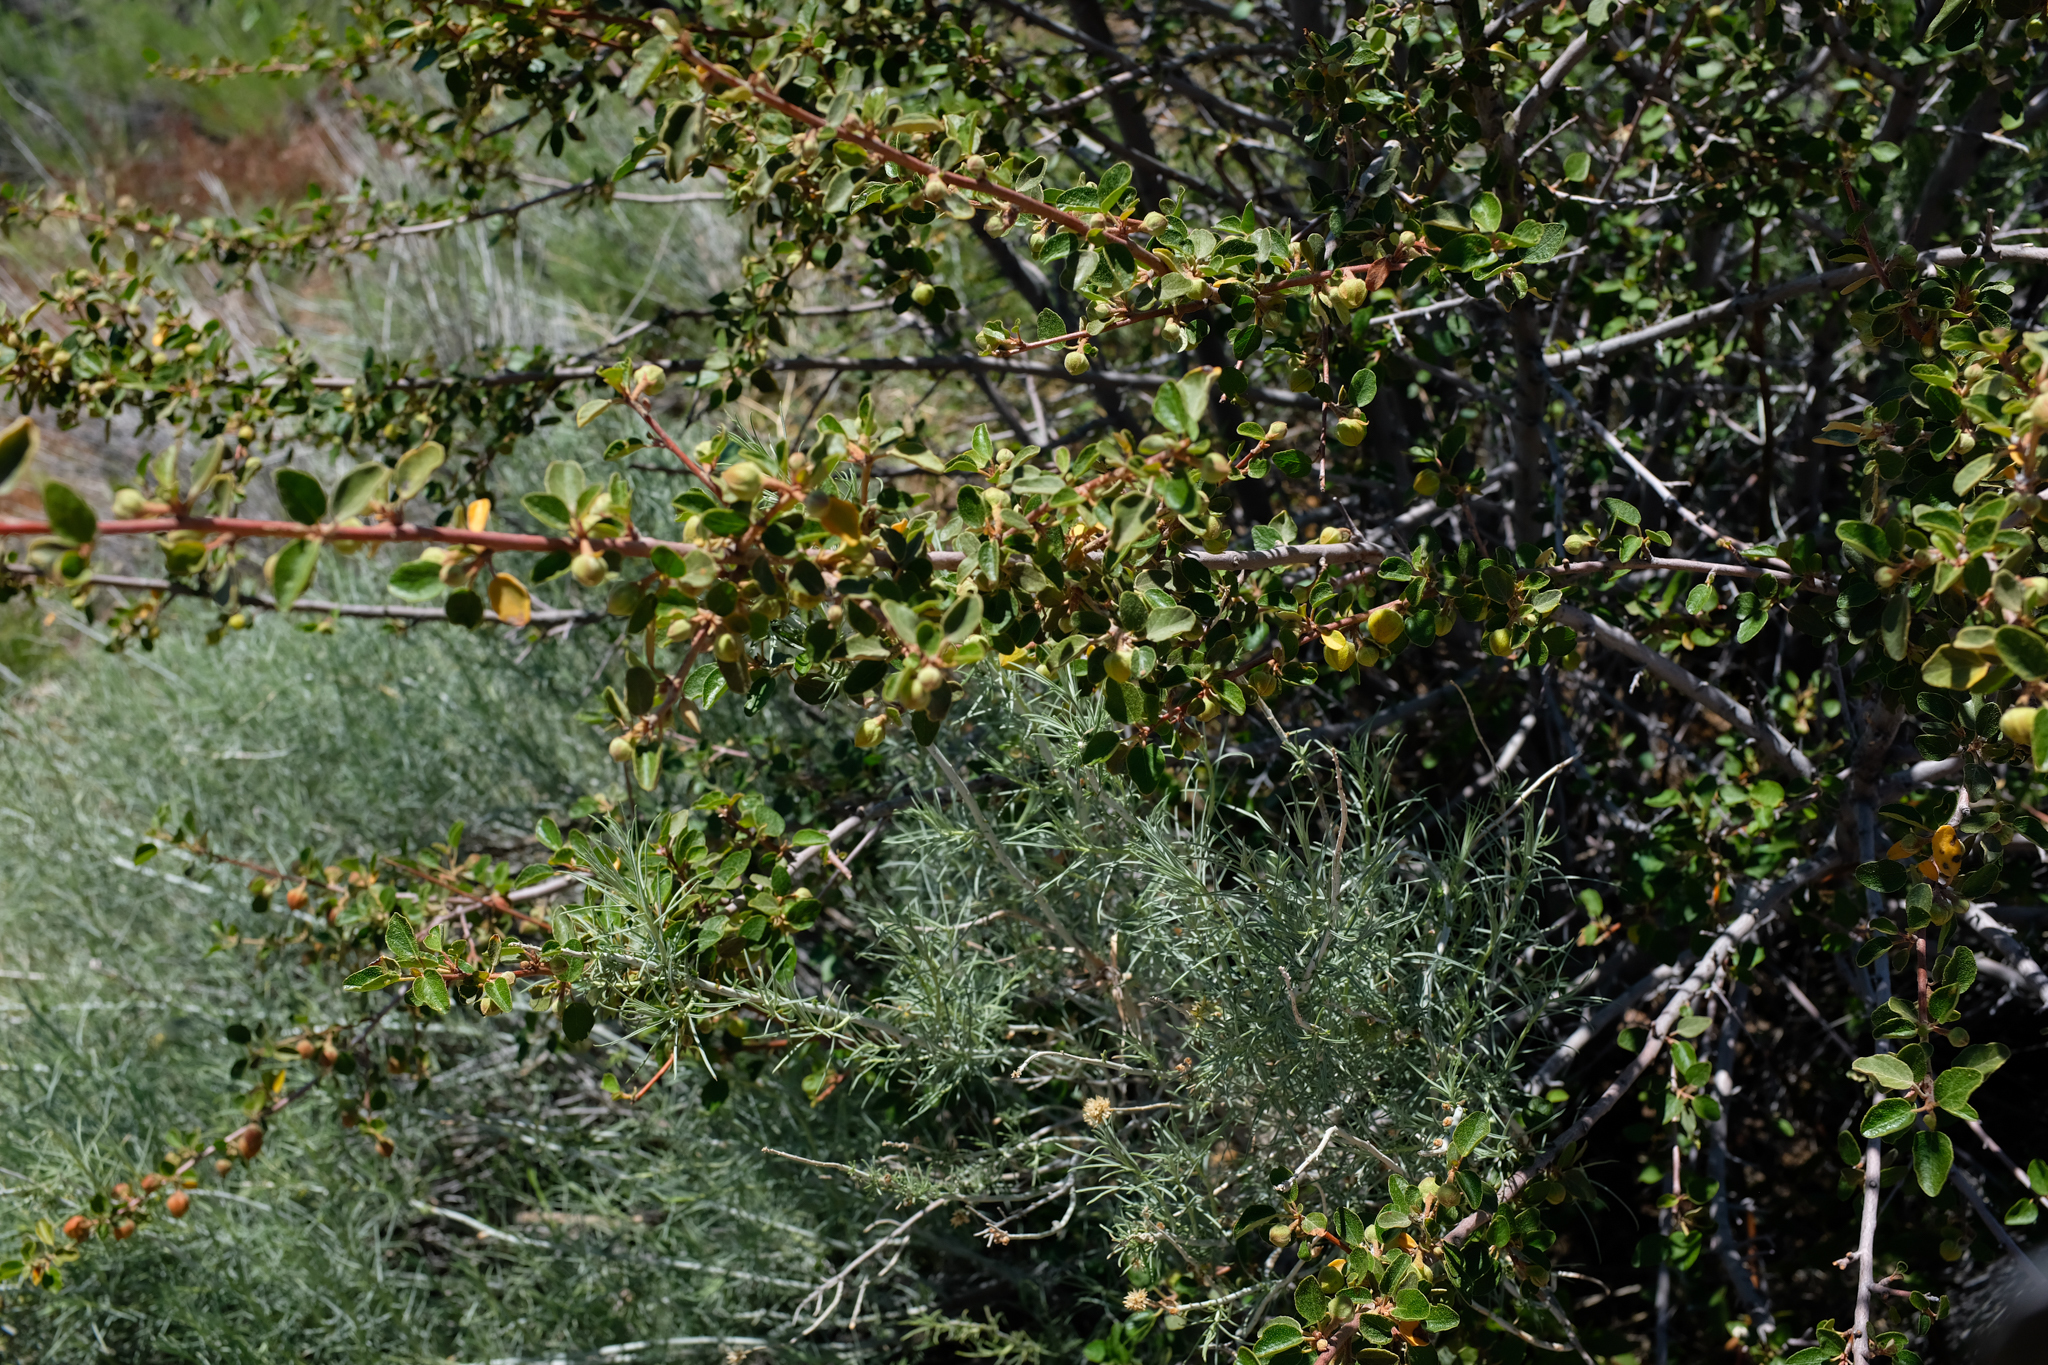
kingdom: Plantae
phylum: Tracheophyta
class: Magnoliopsida
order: Malvales
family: Malvaceae
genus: Fremontodendron
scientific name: Fremontodendron californicum
